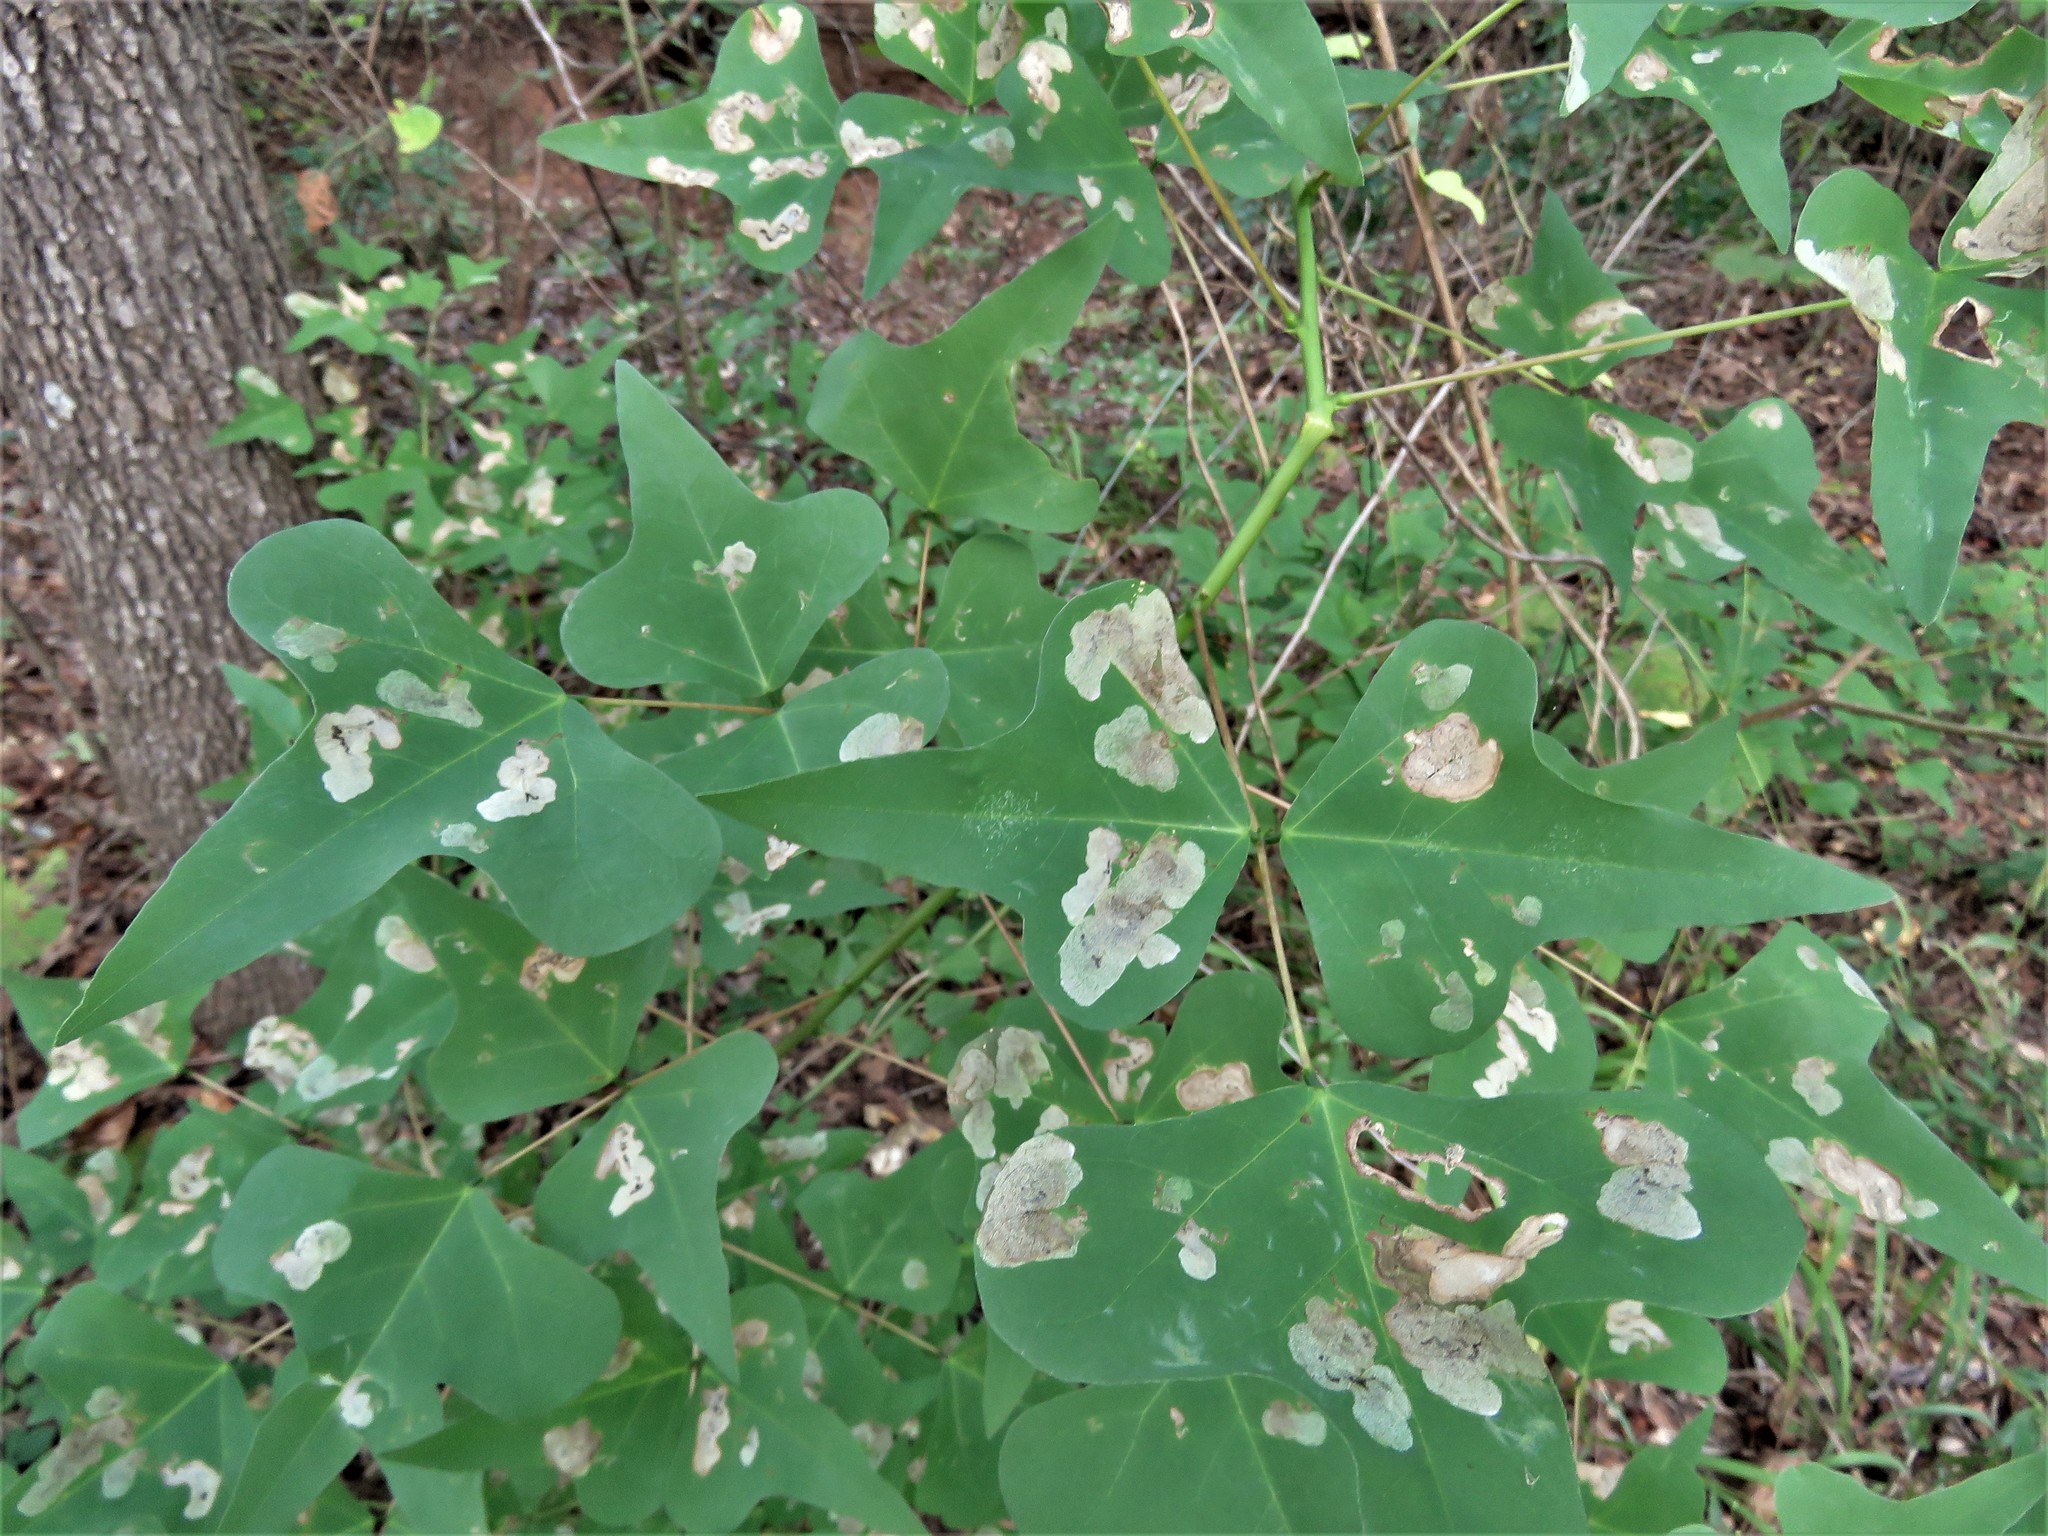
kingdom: Plantae
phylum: Tracheophyta
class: Magnoliopsida
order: Fabales
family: Fabaceae
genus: Erythrina
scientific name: Erythrina herbacea
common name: Coral-bean
